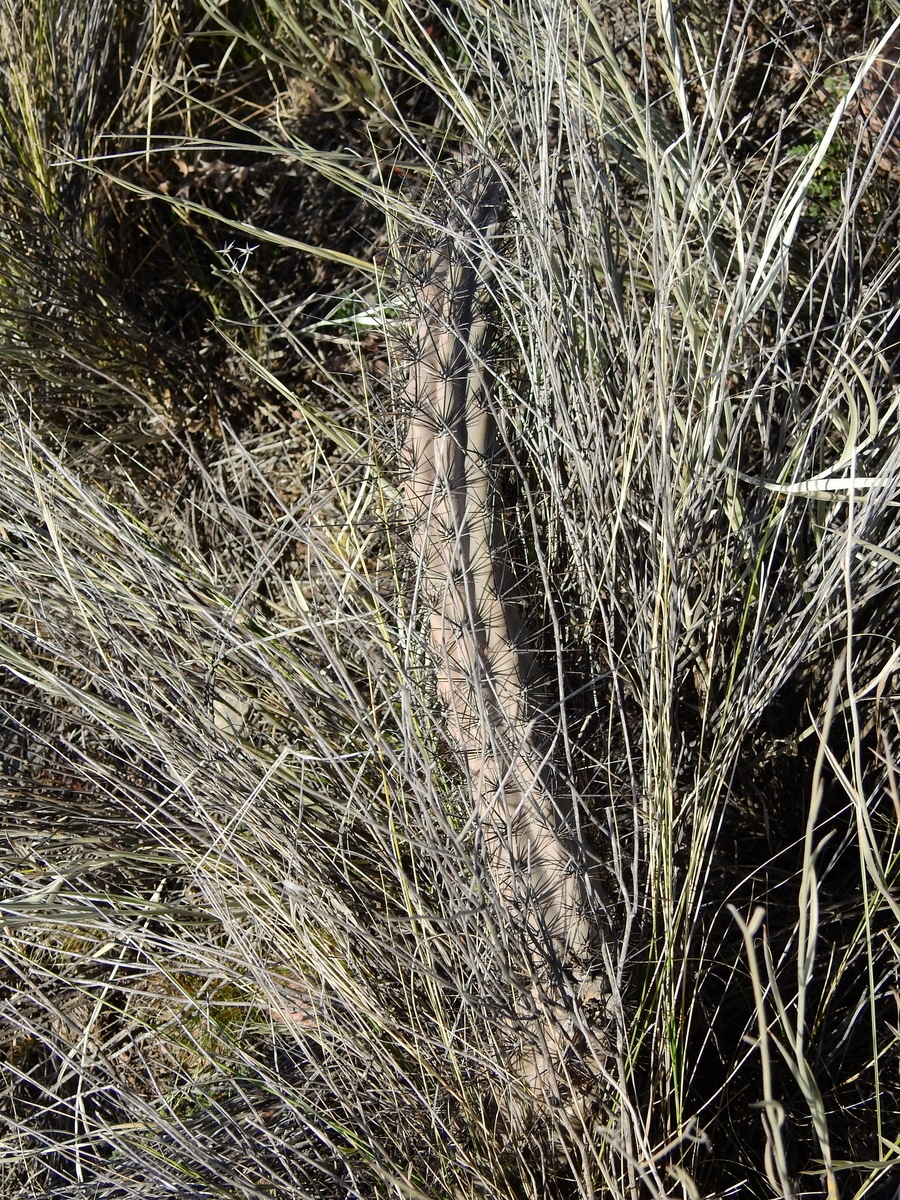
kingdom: Plantae
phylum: Tracheophyta
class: Magnoliopsida
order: Caryophyllales
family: Cactaceae
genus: Cereus
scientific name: Cereus aethiops
